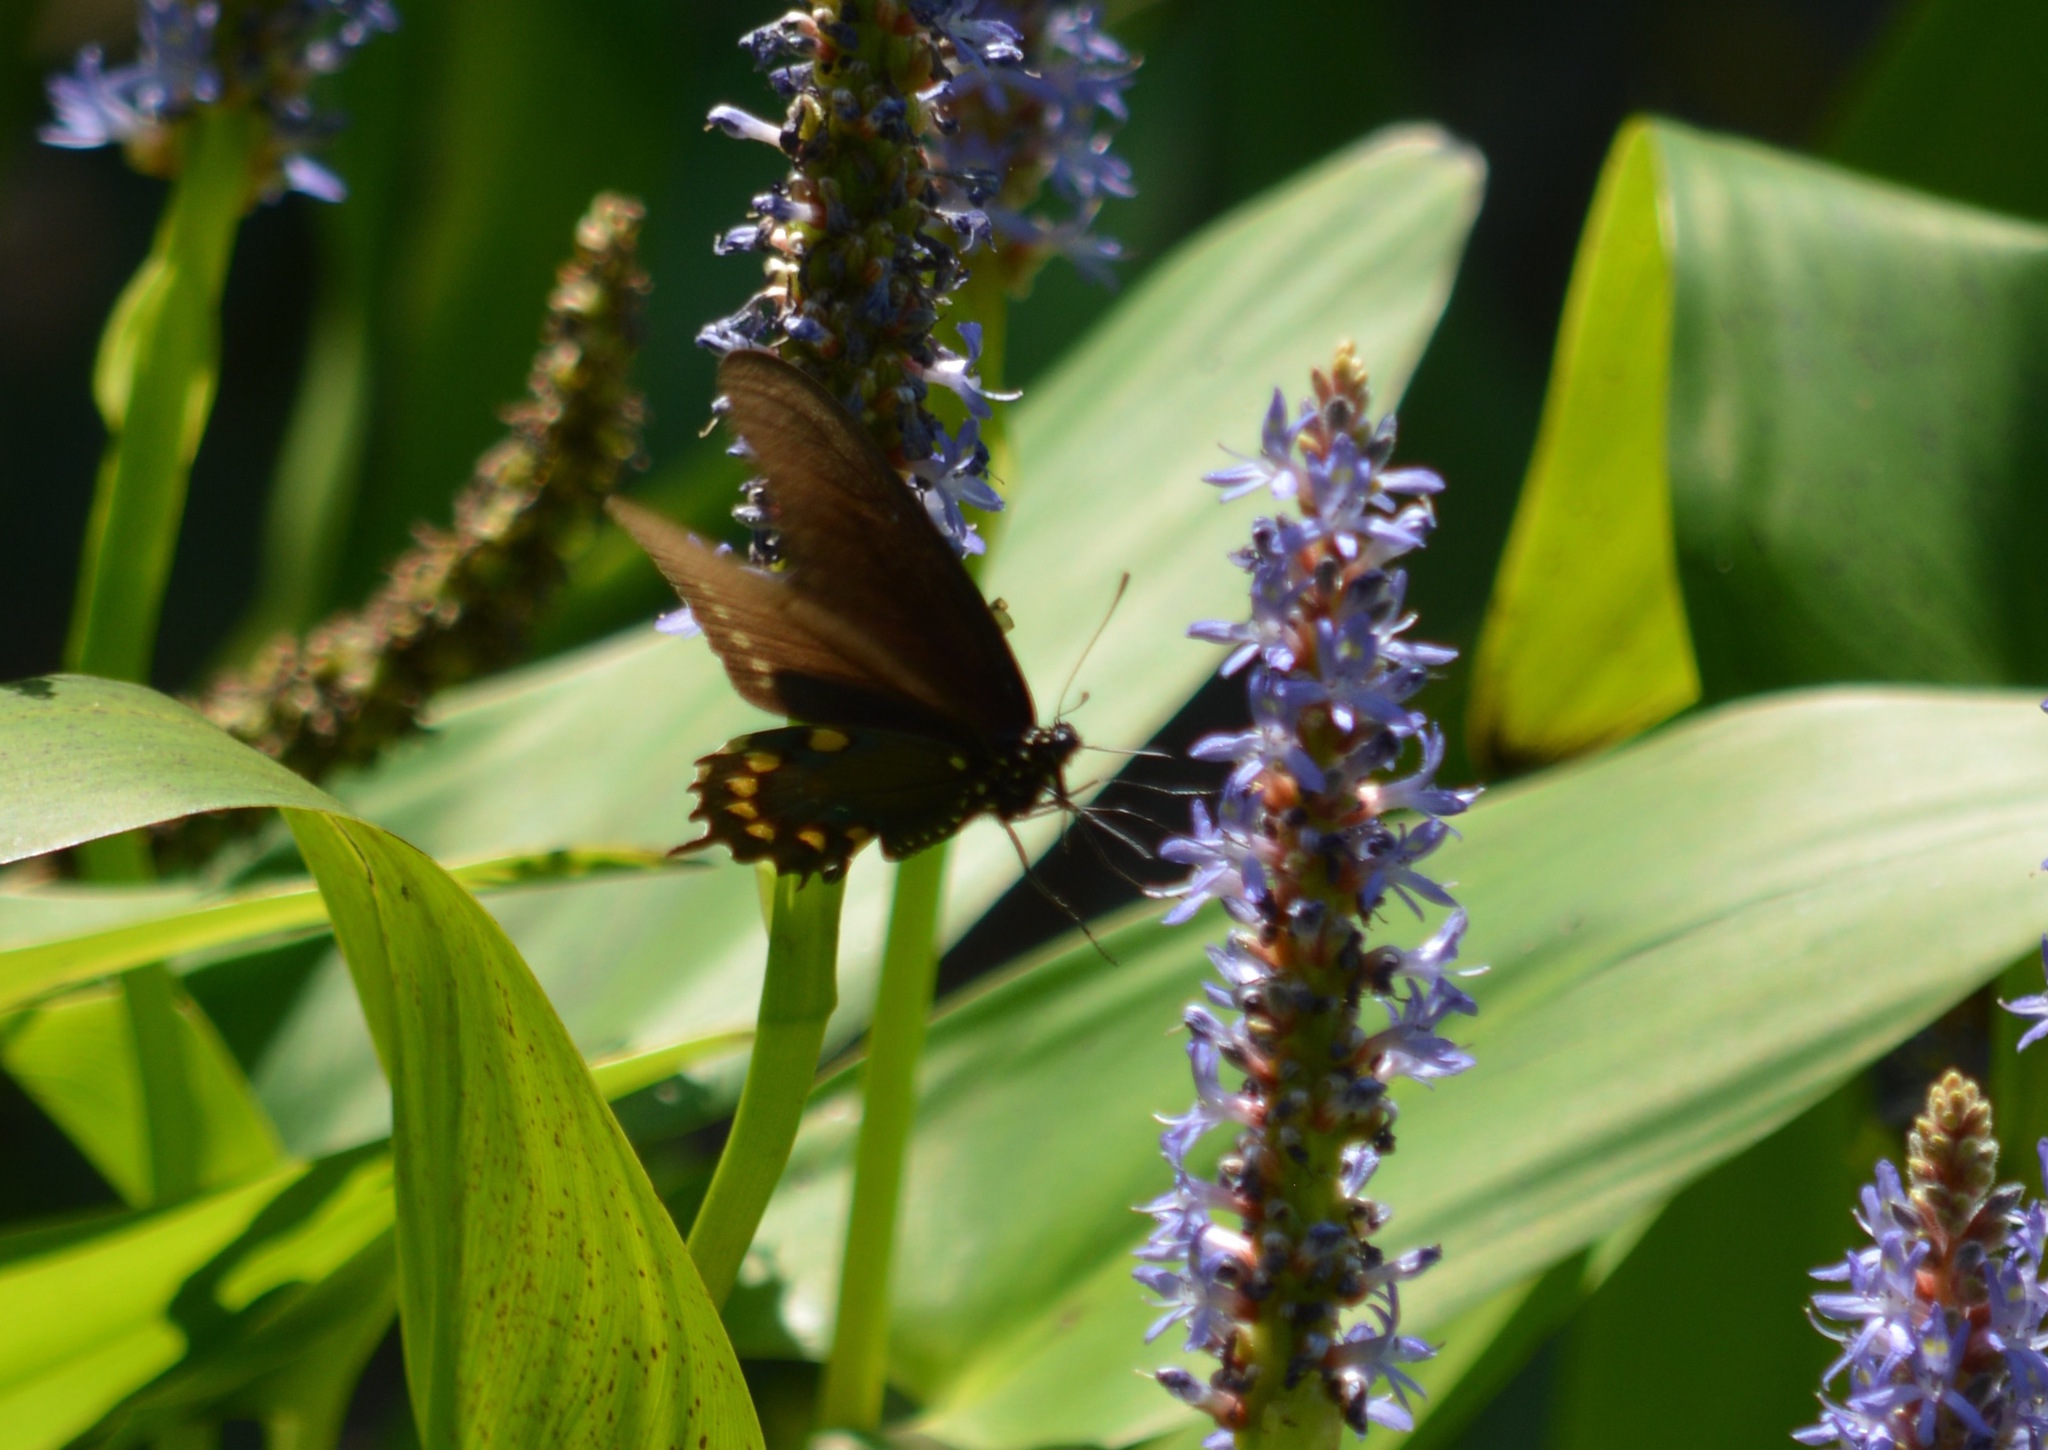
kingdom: Animalia
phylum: Arthropoda
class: Insecta
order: Lepidoptera
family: Papilionidae
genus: Battus
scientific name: Battus philenor
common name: Pipevine swallowtail
